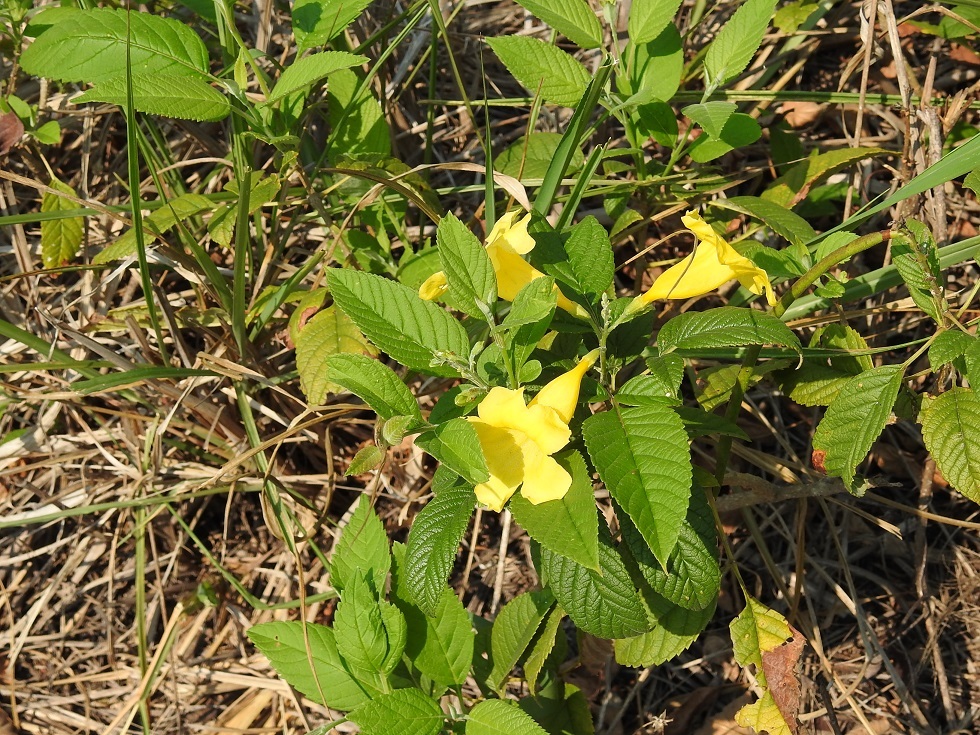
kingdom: Plantae
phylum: Tracheophyta
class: Magnoliopsida
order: Lamiales
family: Bignoniaceae
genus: Tecoma
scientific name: Tecoma stans
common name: Yellow trumpetbush
